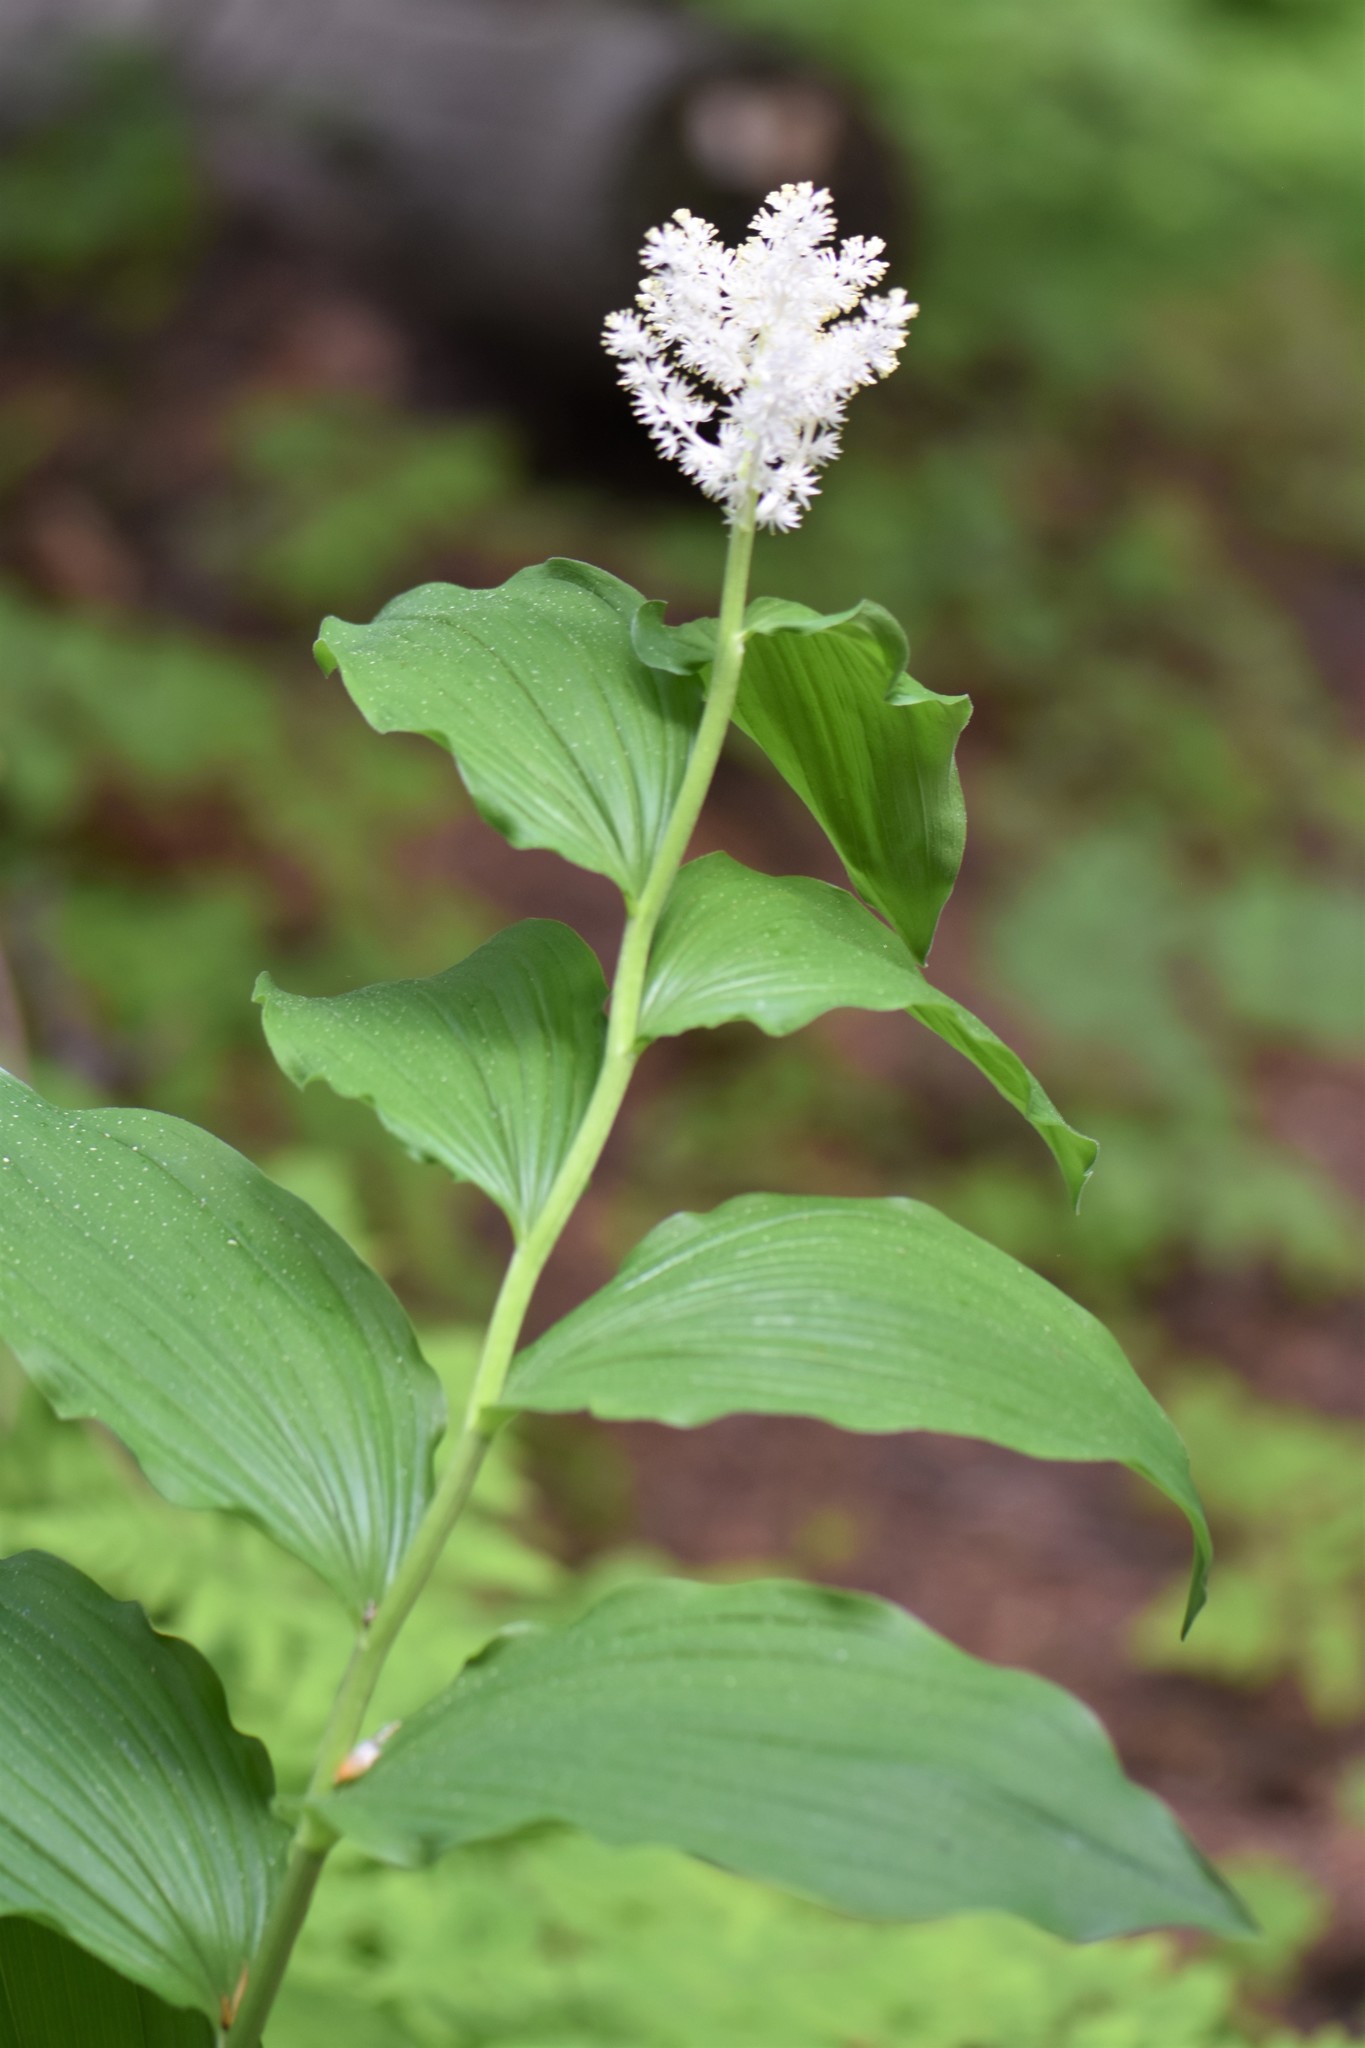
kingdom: Plantae
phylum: Tracheophyta
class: Liliopsida
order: Asparagales
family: Asparagaceae
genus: Maianthemum
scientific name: Maianthemum racemosum
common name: False spikenard
